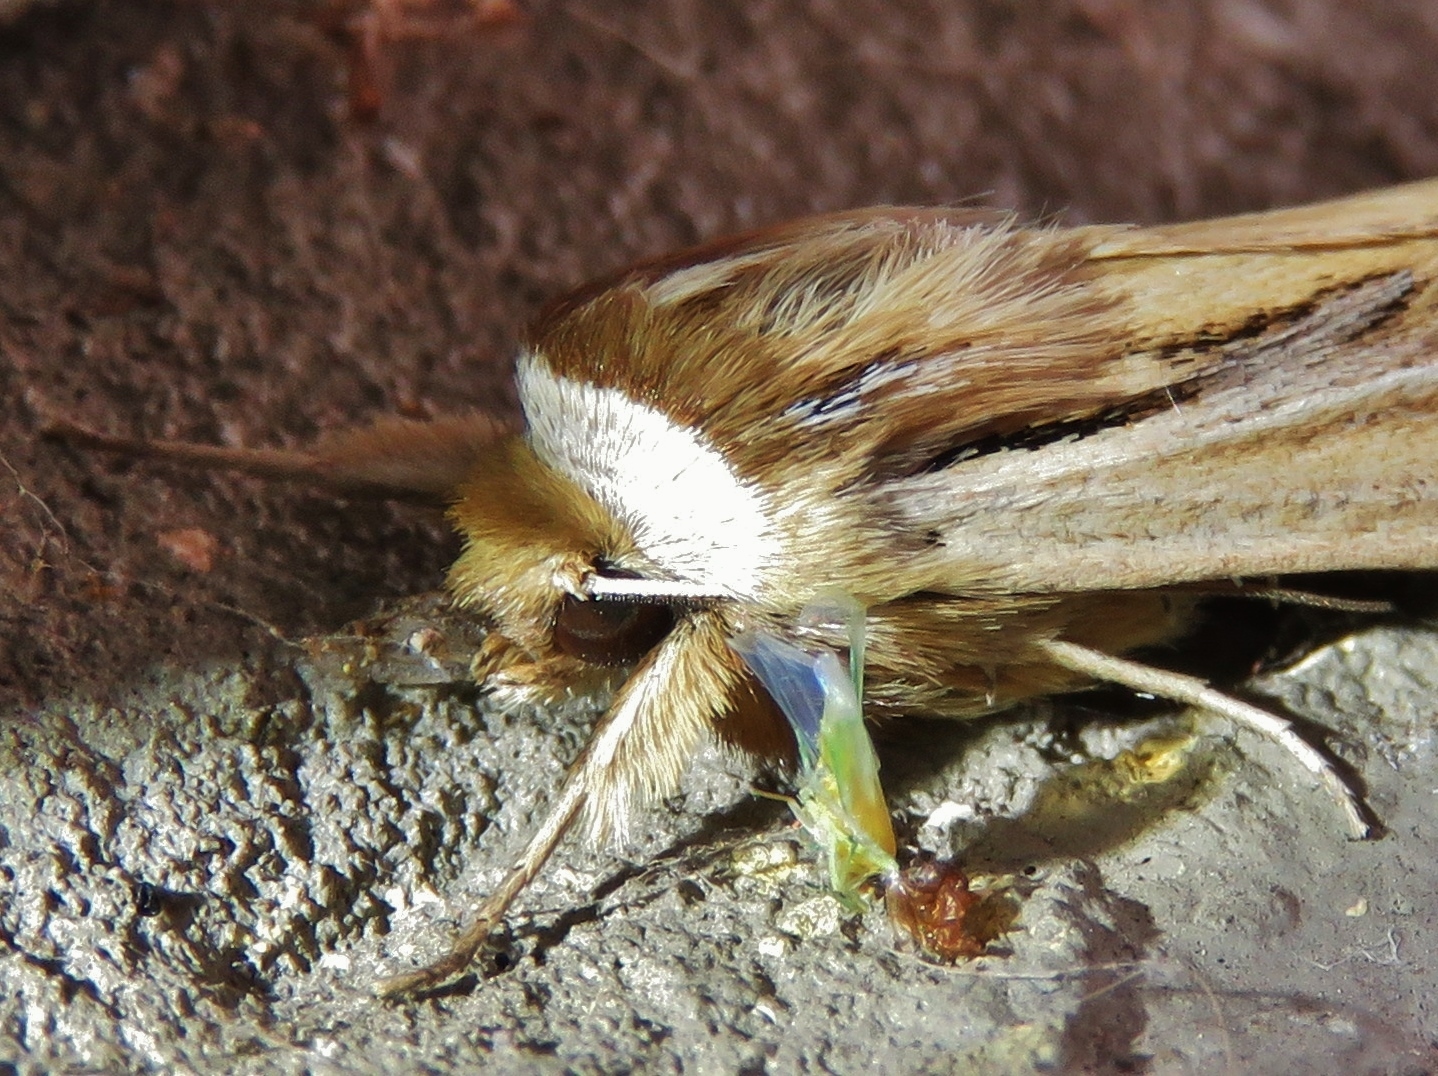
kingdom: Animalia
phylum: Arthropoda
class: Insecta
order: Lepidoptera
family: Noctuidae
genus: Dargida
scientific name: Dargida diffusa
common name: Wheat head armyworm
